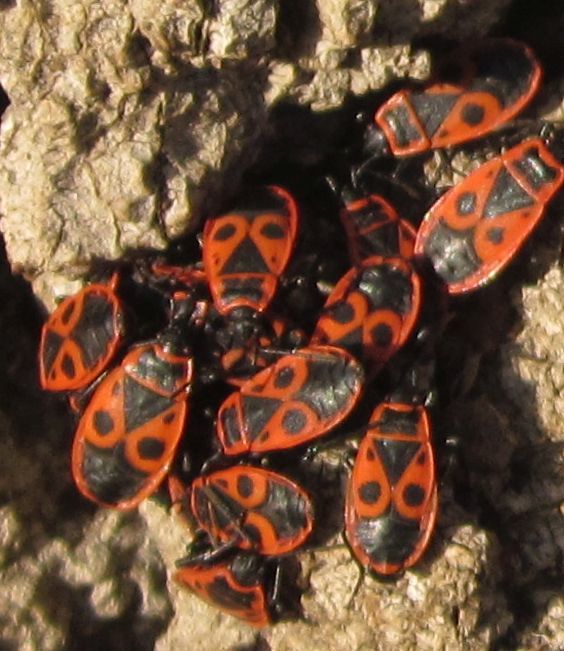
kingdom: Animalia
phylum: Arthropoda
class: Insecta
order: Hemiptera
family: Pyrrhocoridae
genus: Pyrrhocoris
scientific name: Pyrrhocoris apterus
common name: Firebug
